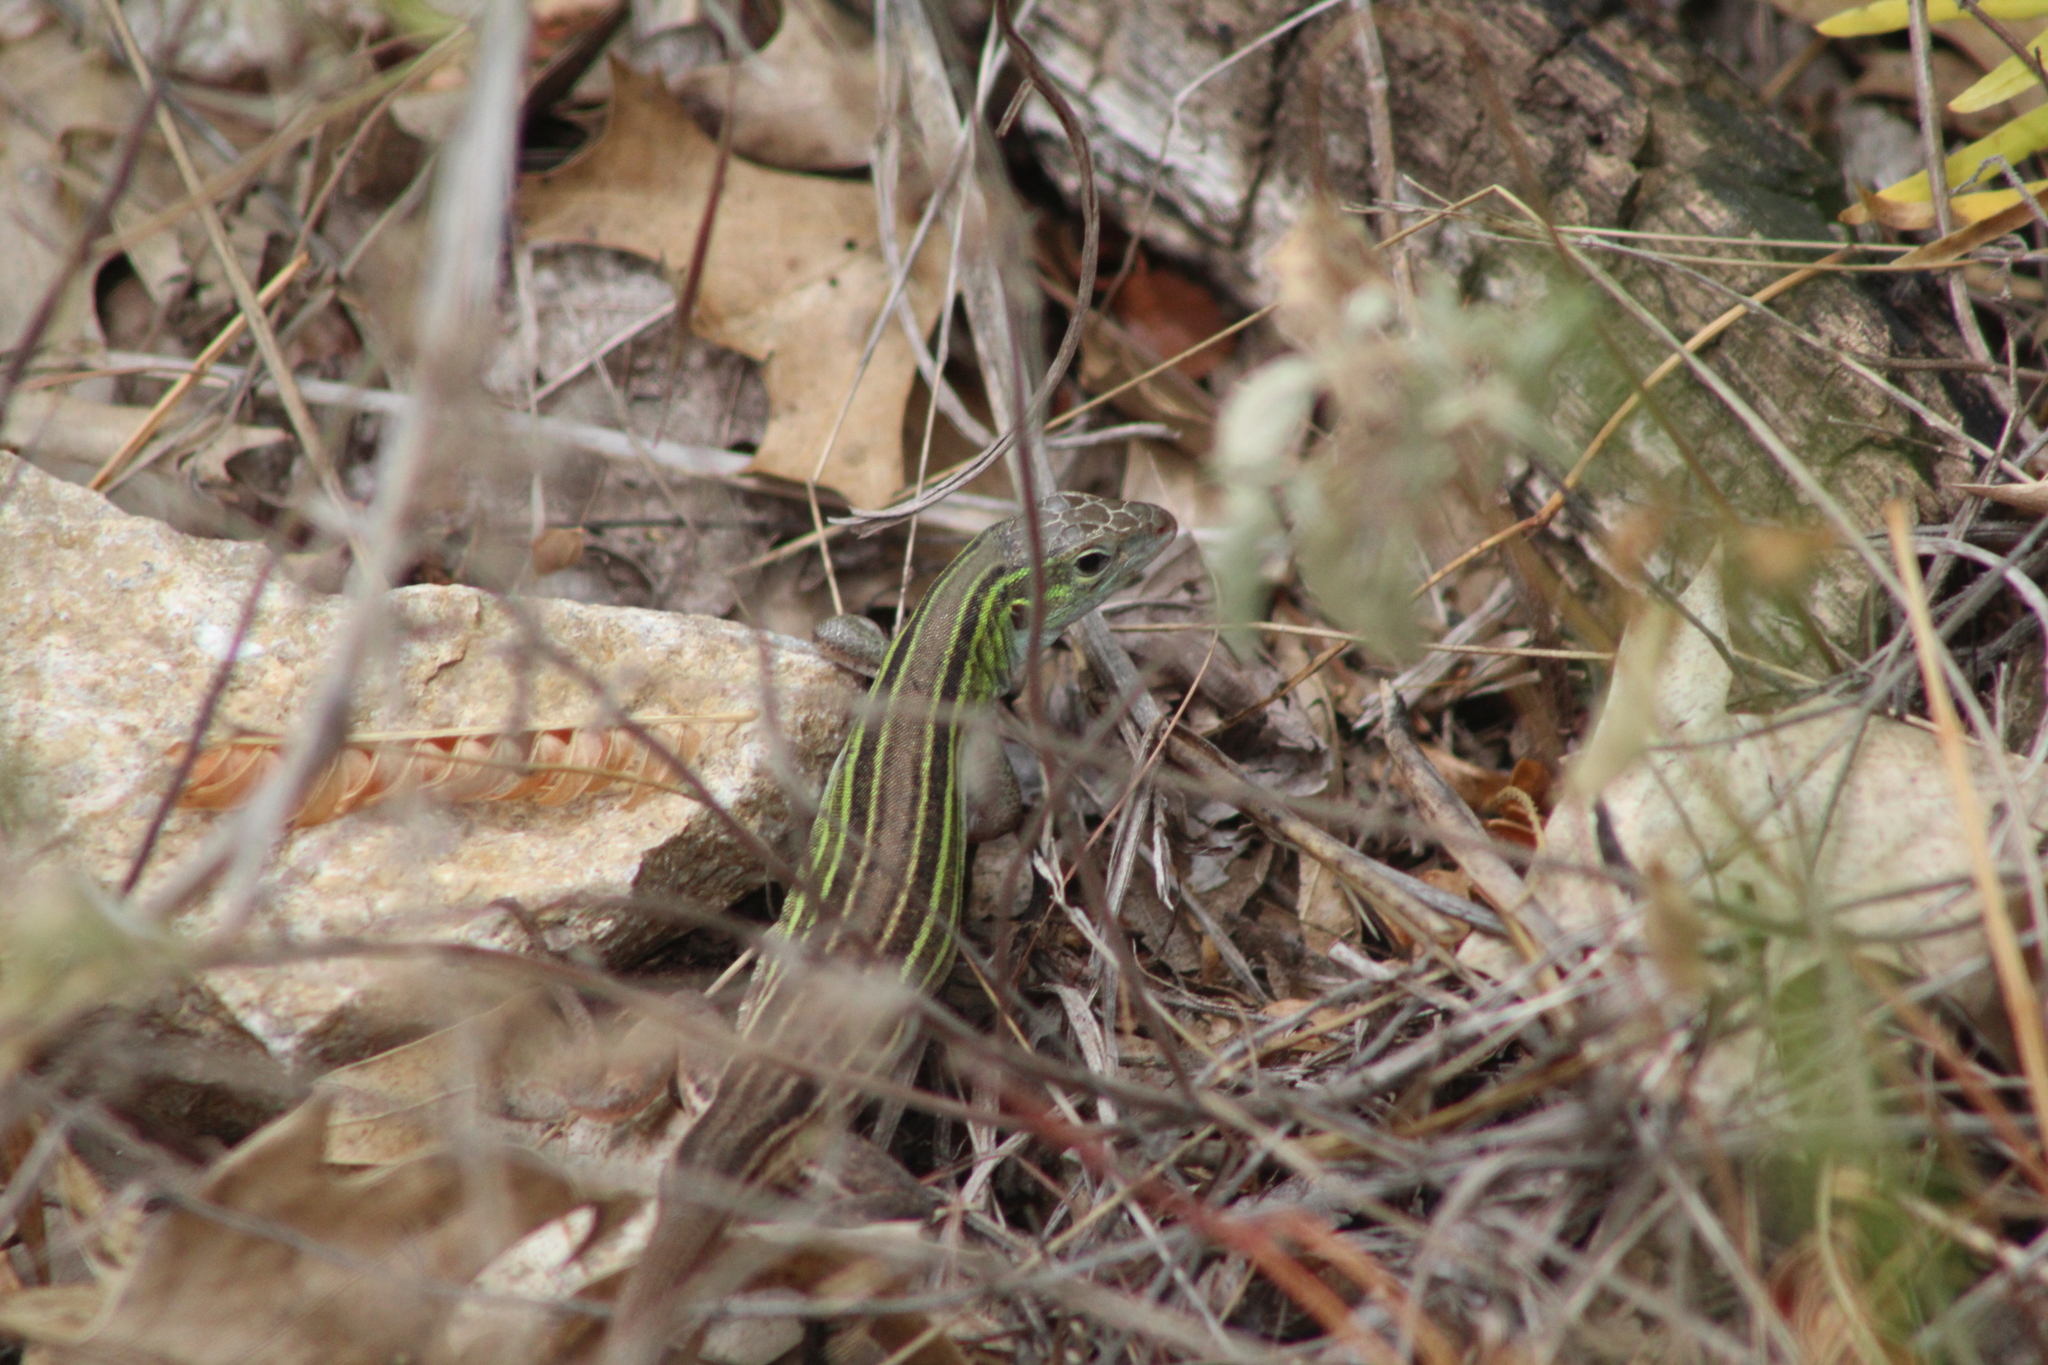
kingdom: Animalia
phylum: Chordata
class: Squamata
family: Teiidae
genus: Aspidoscelis
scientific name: Aspidoscelis sexlineatus
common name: Six-lined racerunner
